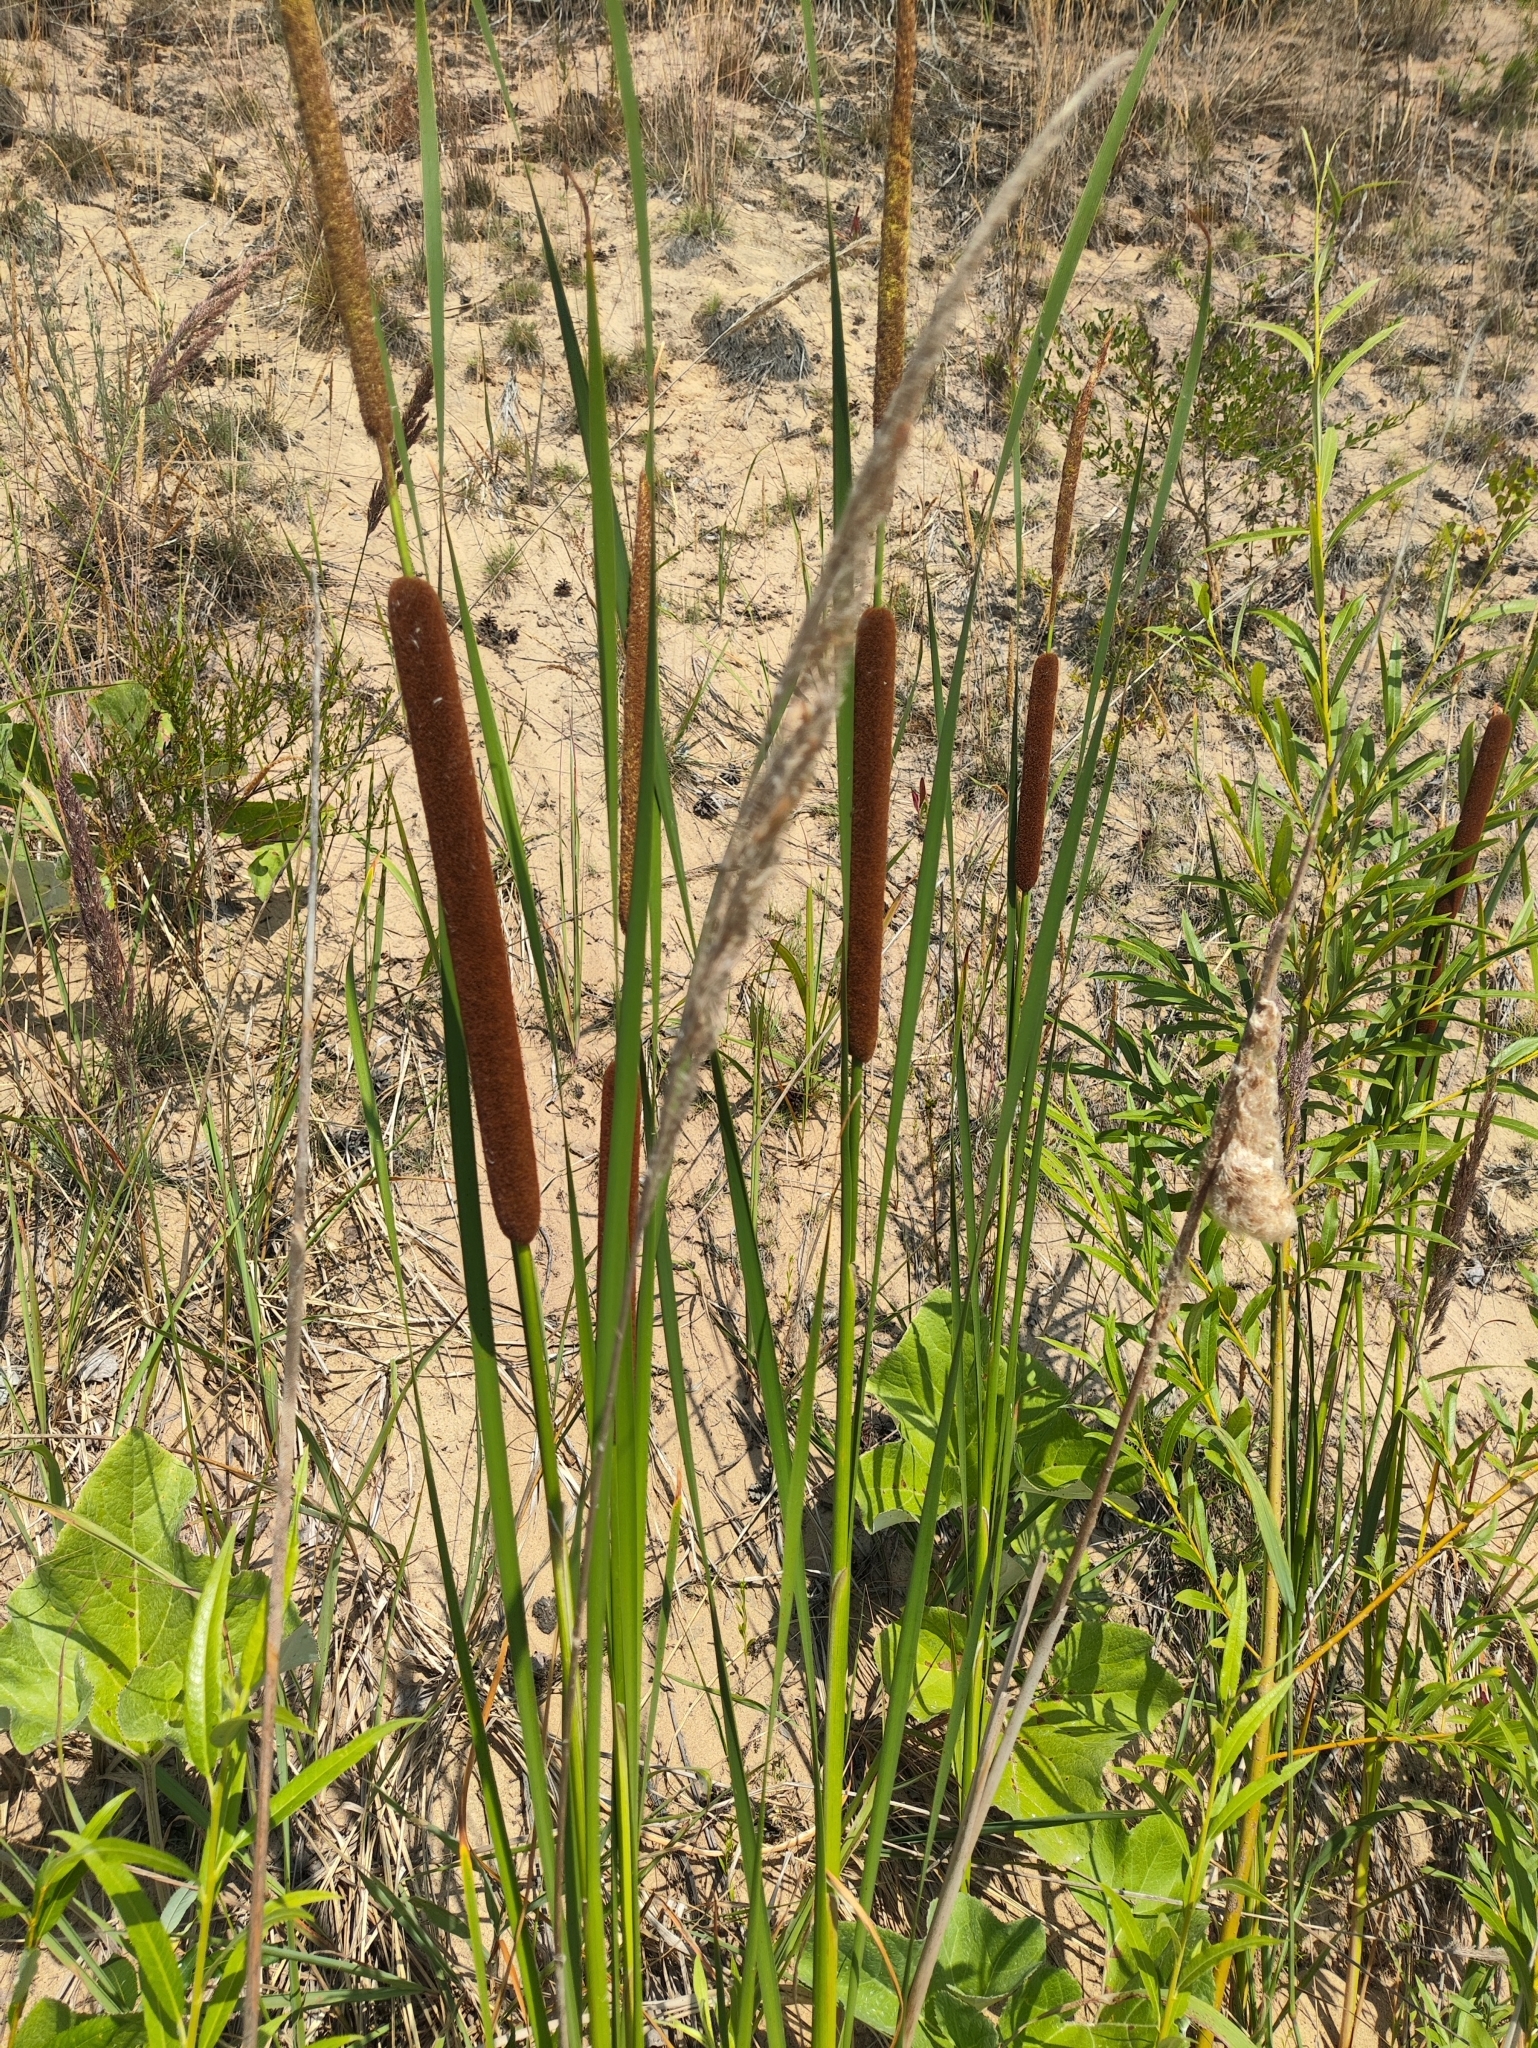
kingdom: Plantae
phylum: Tracheophyta
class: Liliopsida
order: Poales
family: Typhaceae
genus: Typha
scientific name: Typha angustifolia
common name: Lesser bulrush
